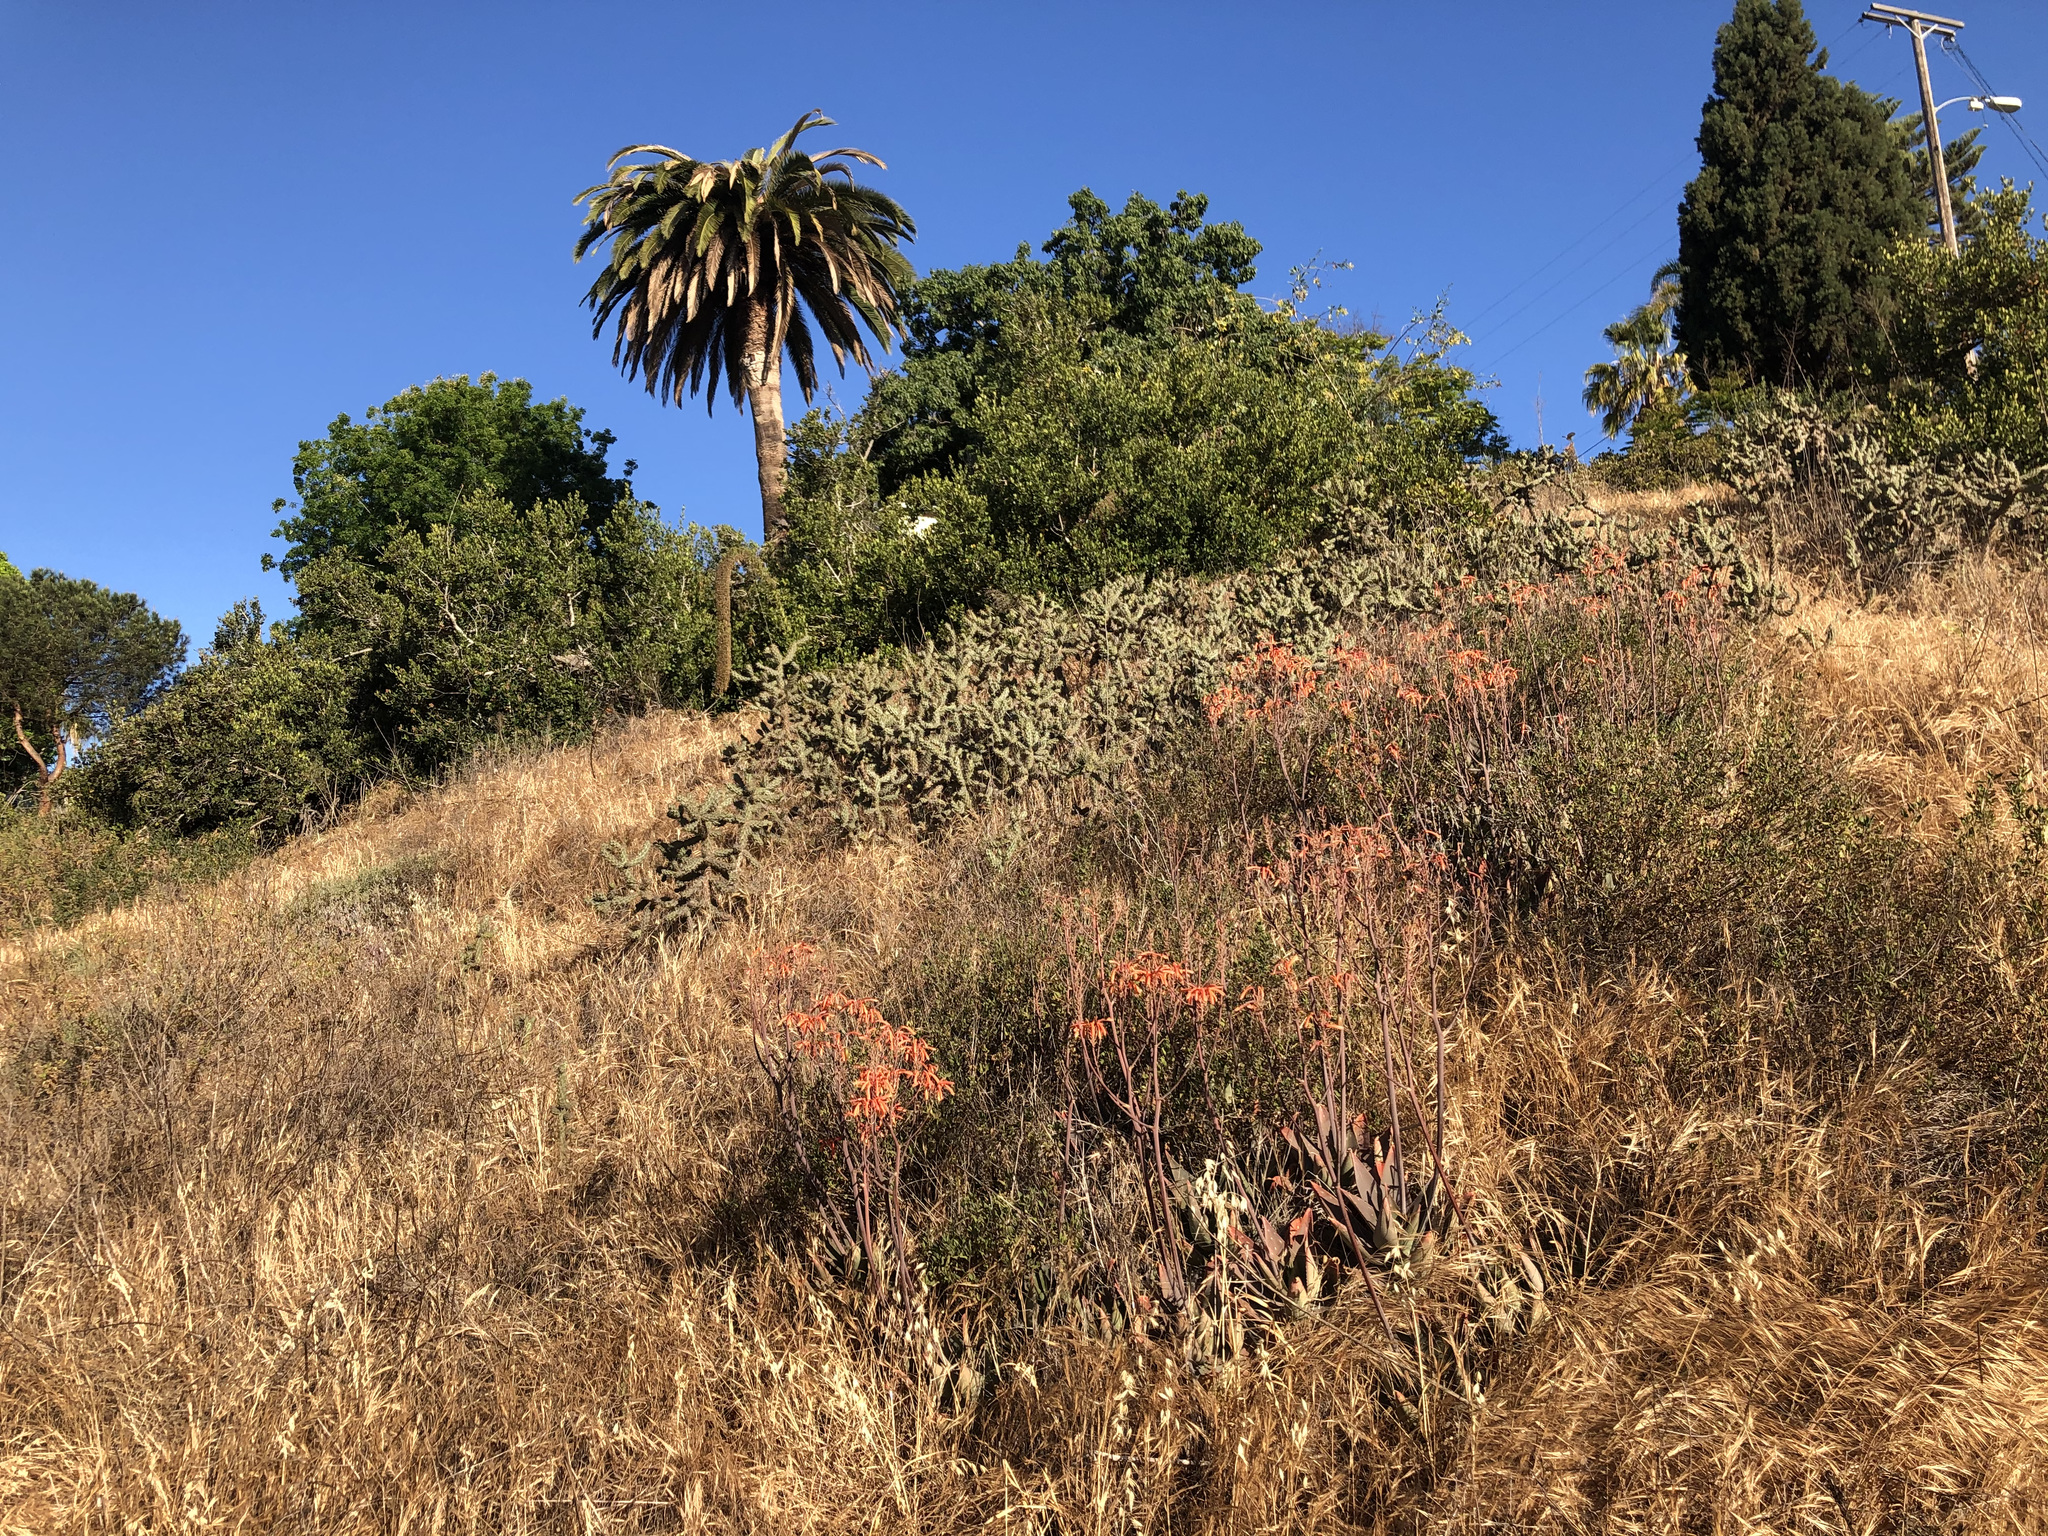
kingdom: Plantae
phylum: Tracheophyta
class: Liliopsida
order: Asparagales
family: Asphodelaceae
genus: Aloe
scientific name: Aloe maculata
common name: Broadleaf aloe
